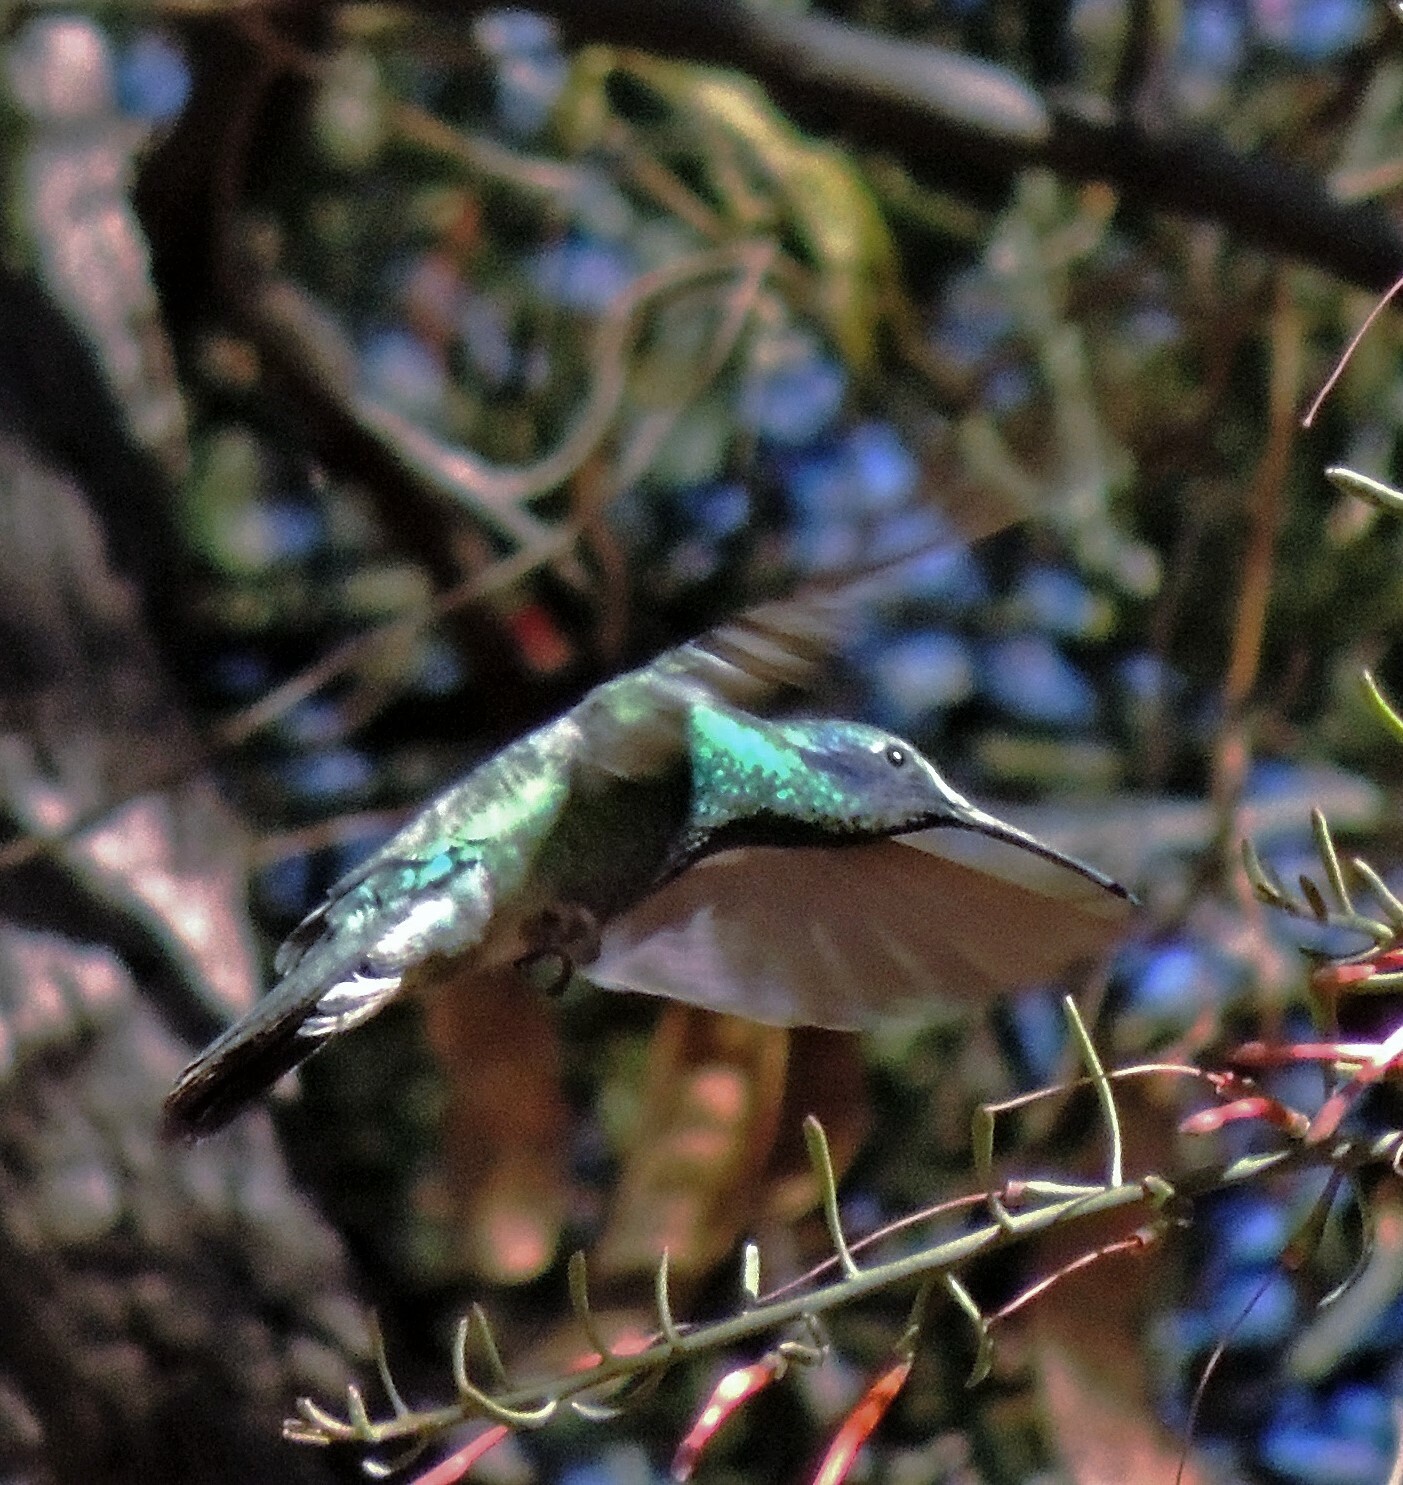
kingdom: Animalia
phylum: Chordata
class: Aves
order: Apodiformes
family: Trochilidae
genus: Colibri
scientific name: Colibri coruscans
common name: Sparkling violetear
